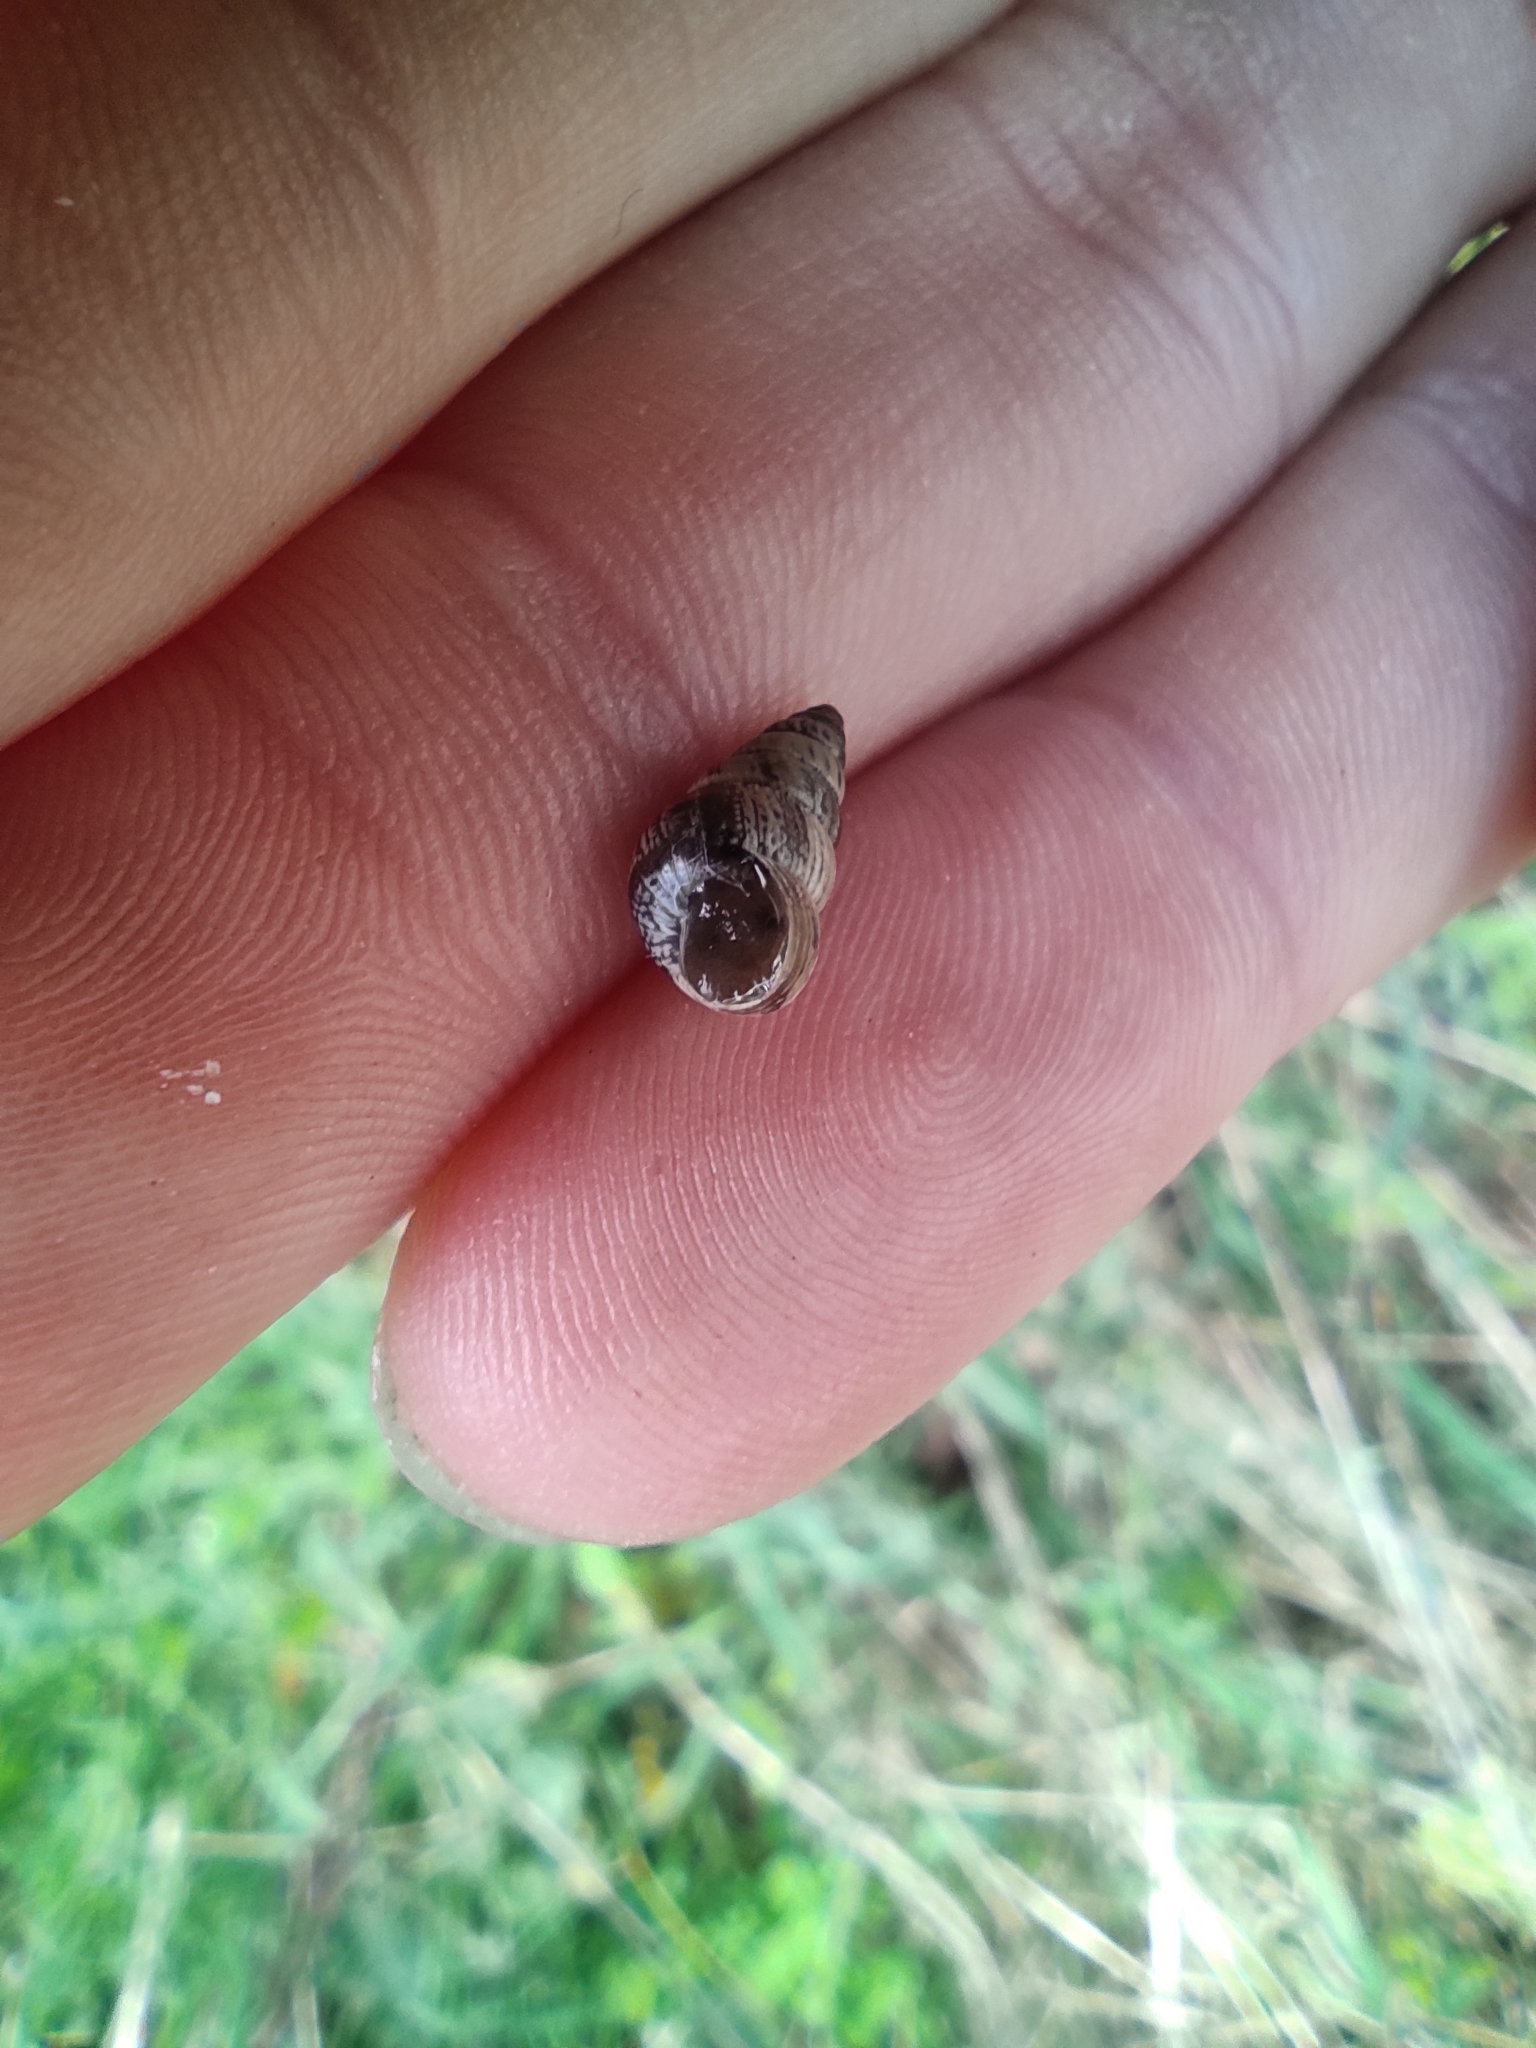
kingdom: Animalia
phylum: Mollusca
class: Gastropoda
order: Stylommatophora
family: Geomitridae
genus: Cochlicella
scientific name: Cochlicella barbara
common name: Potbellied helicellid
